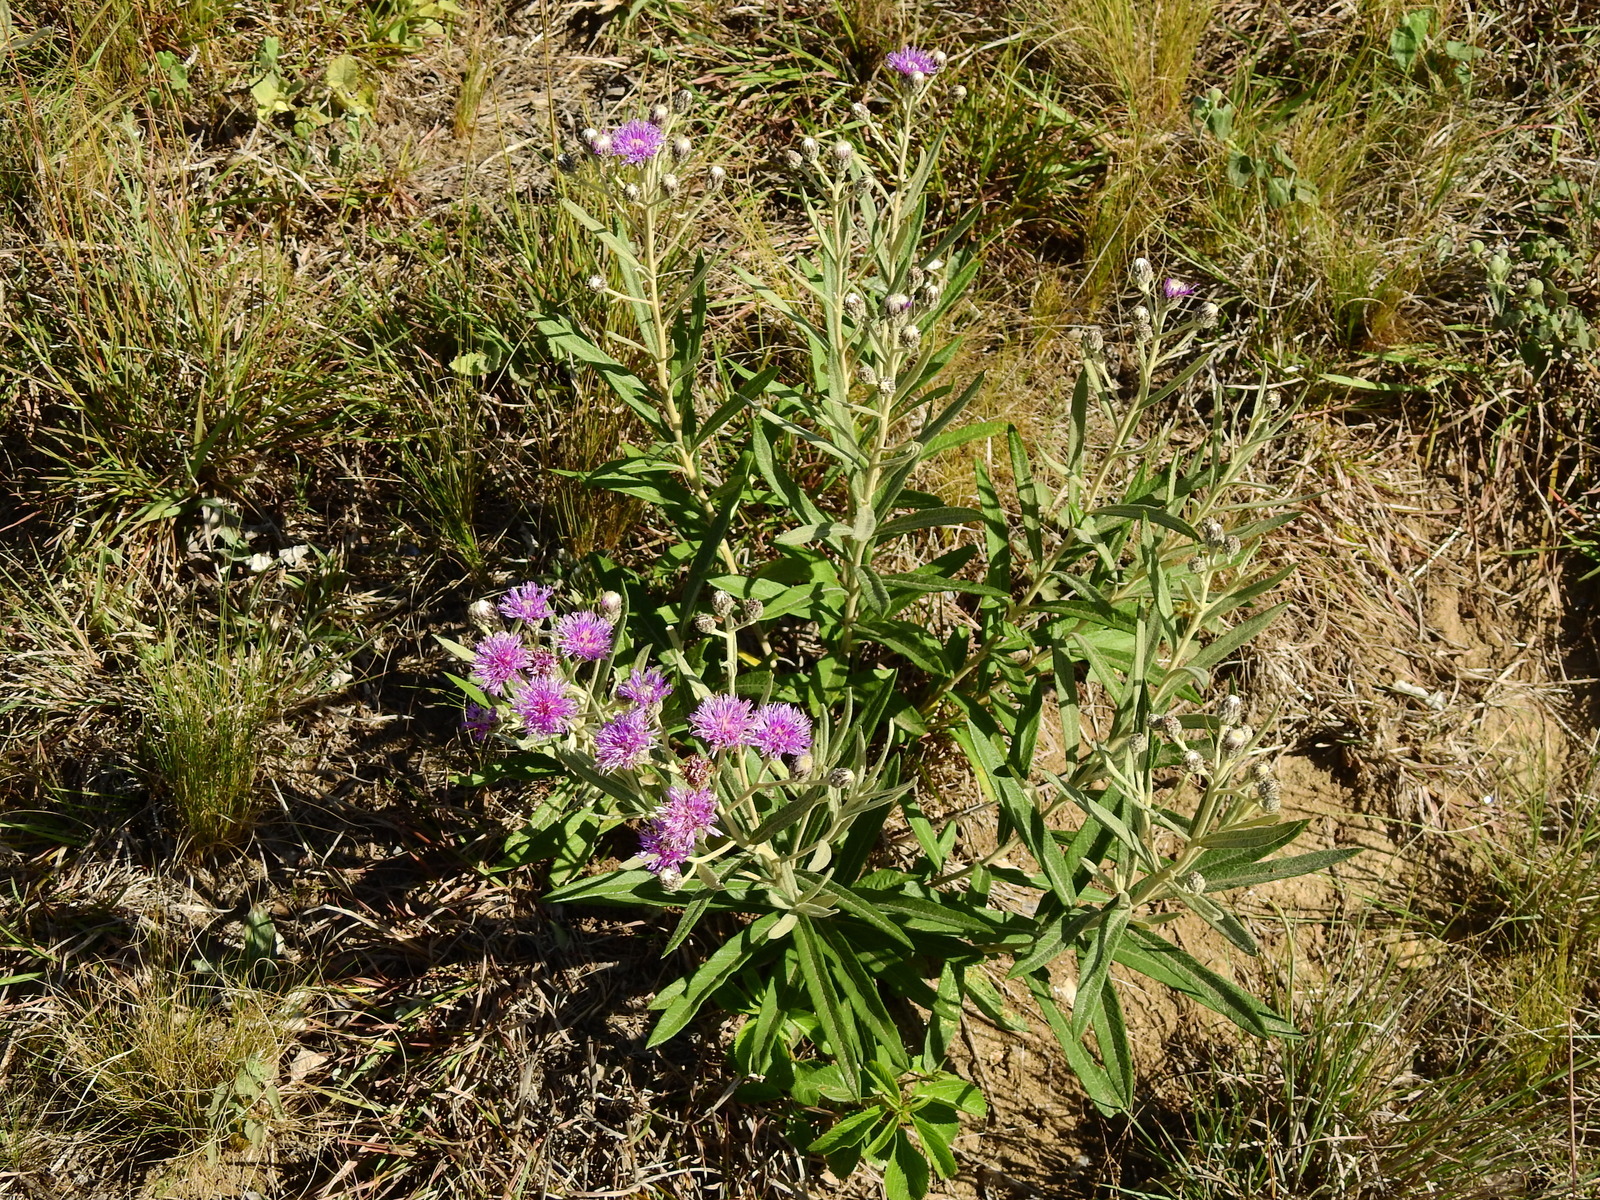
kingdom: Plantae
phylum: Tracheophyta
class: Magnoliopsida
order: Asterales
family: Asteraceae
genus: Lessingianthus
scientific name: Lessingianthus mollissimus
